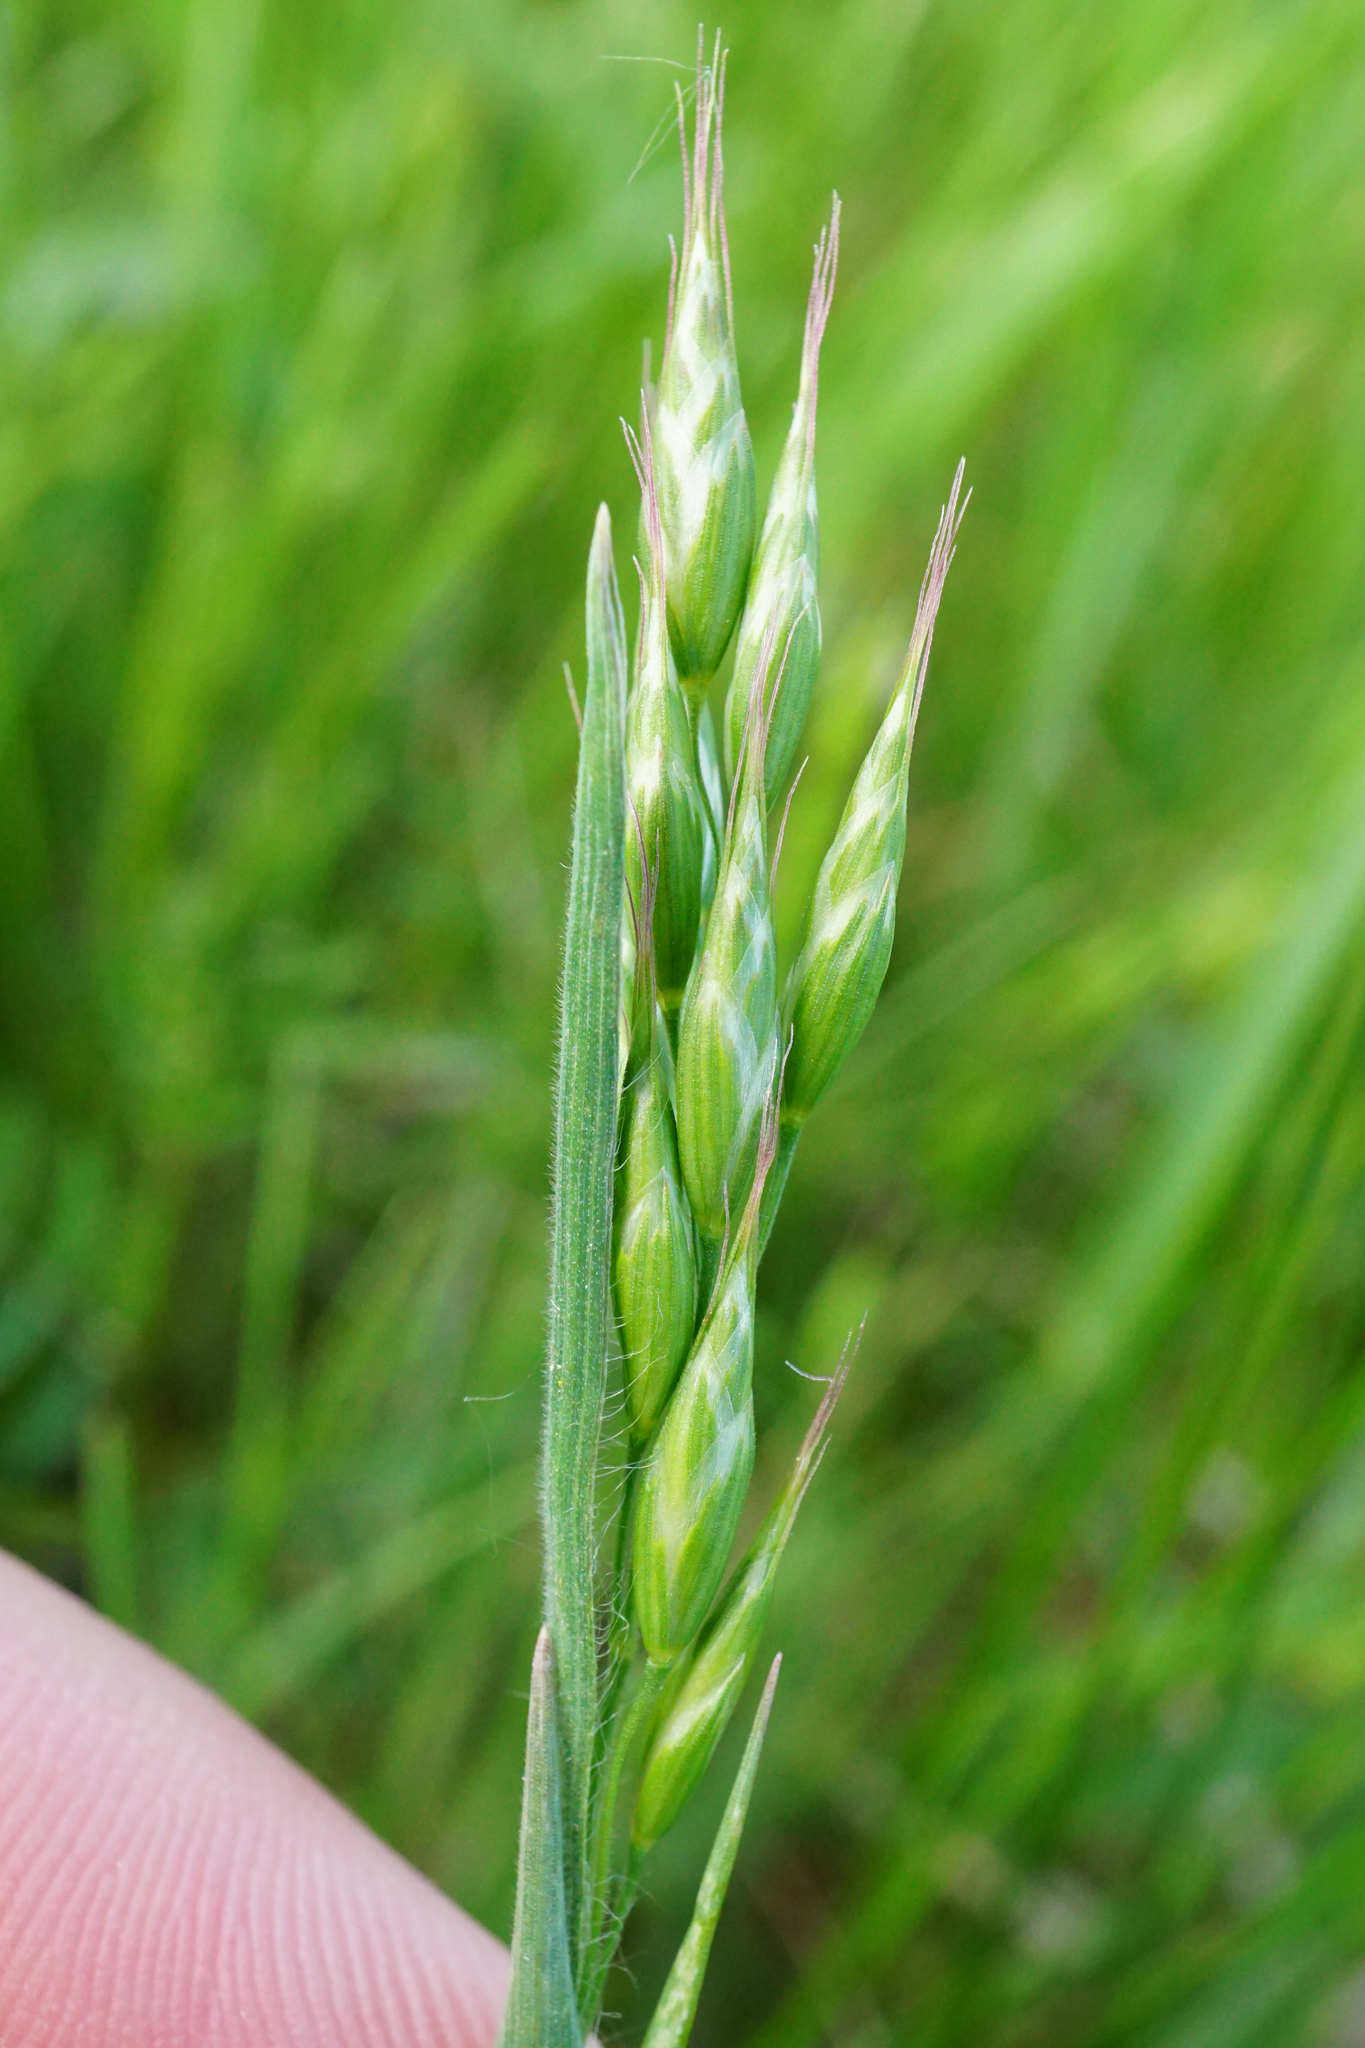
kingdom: Plantae
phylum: Tracheophyta
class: Liliopsida
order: Poales
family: Poaceae
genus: Bromus
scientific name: Bromus hordeaceus
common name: Soft brome
